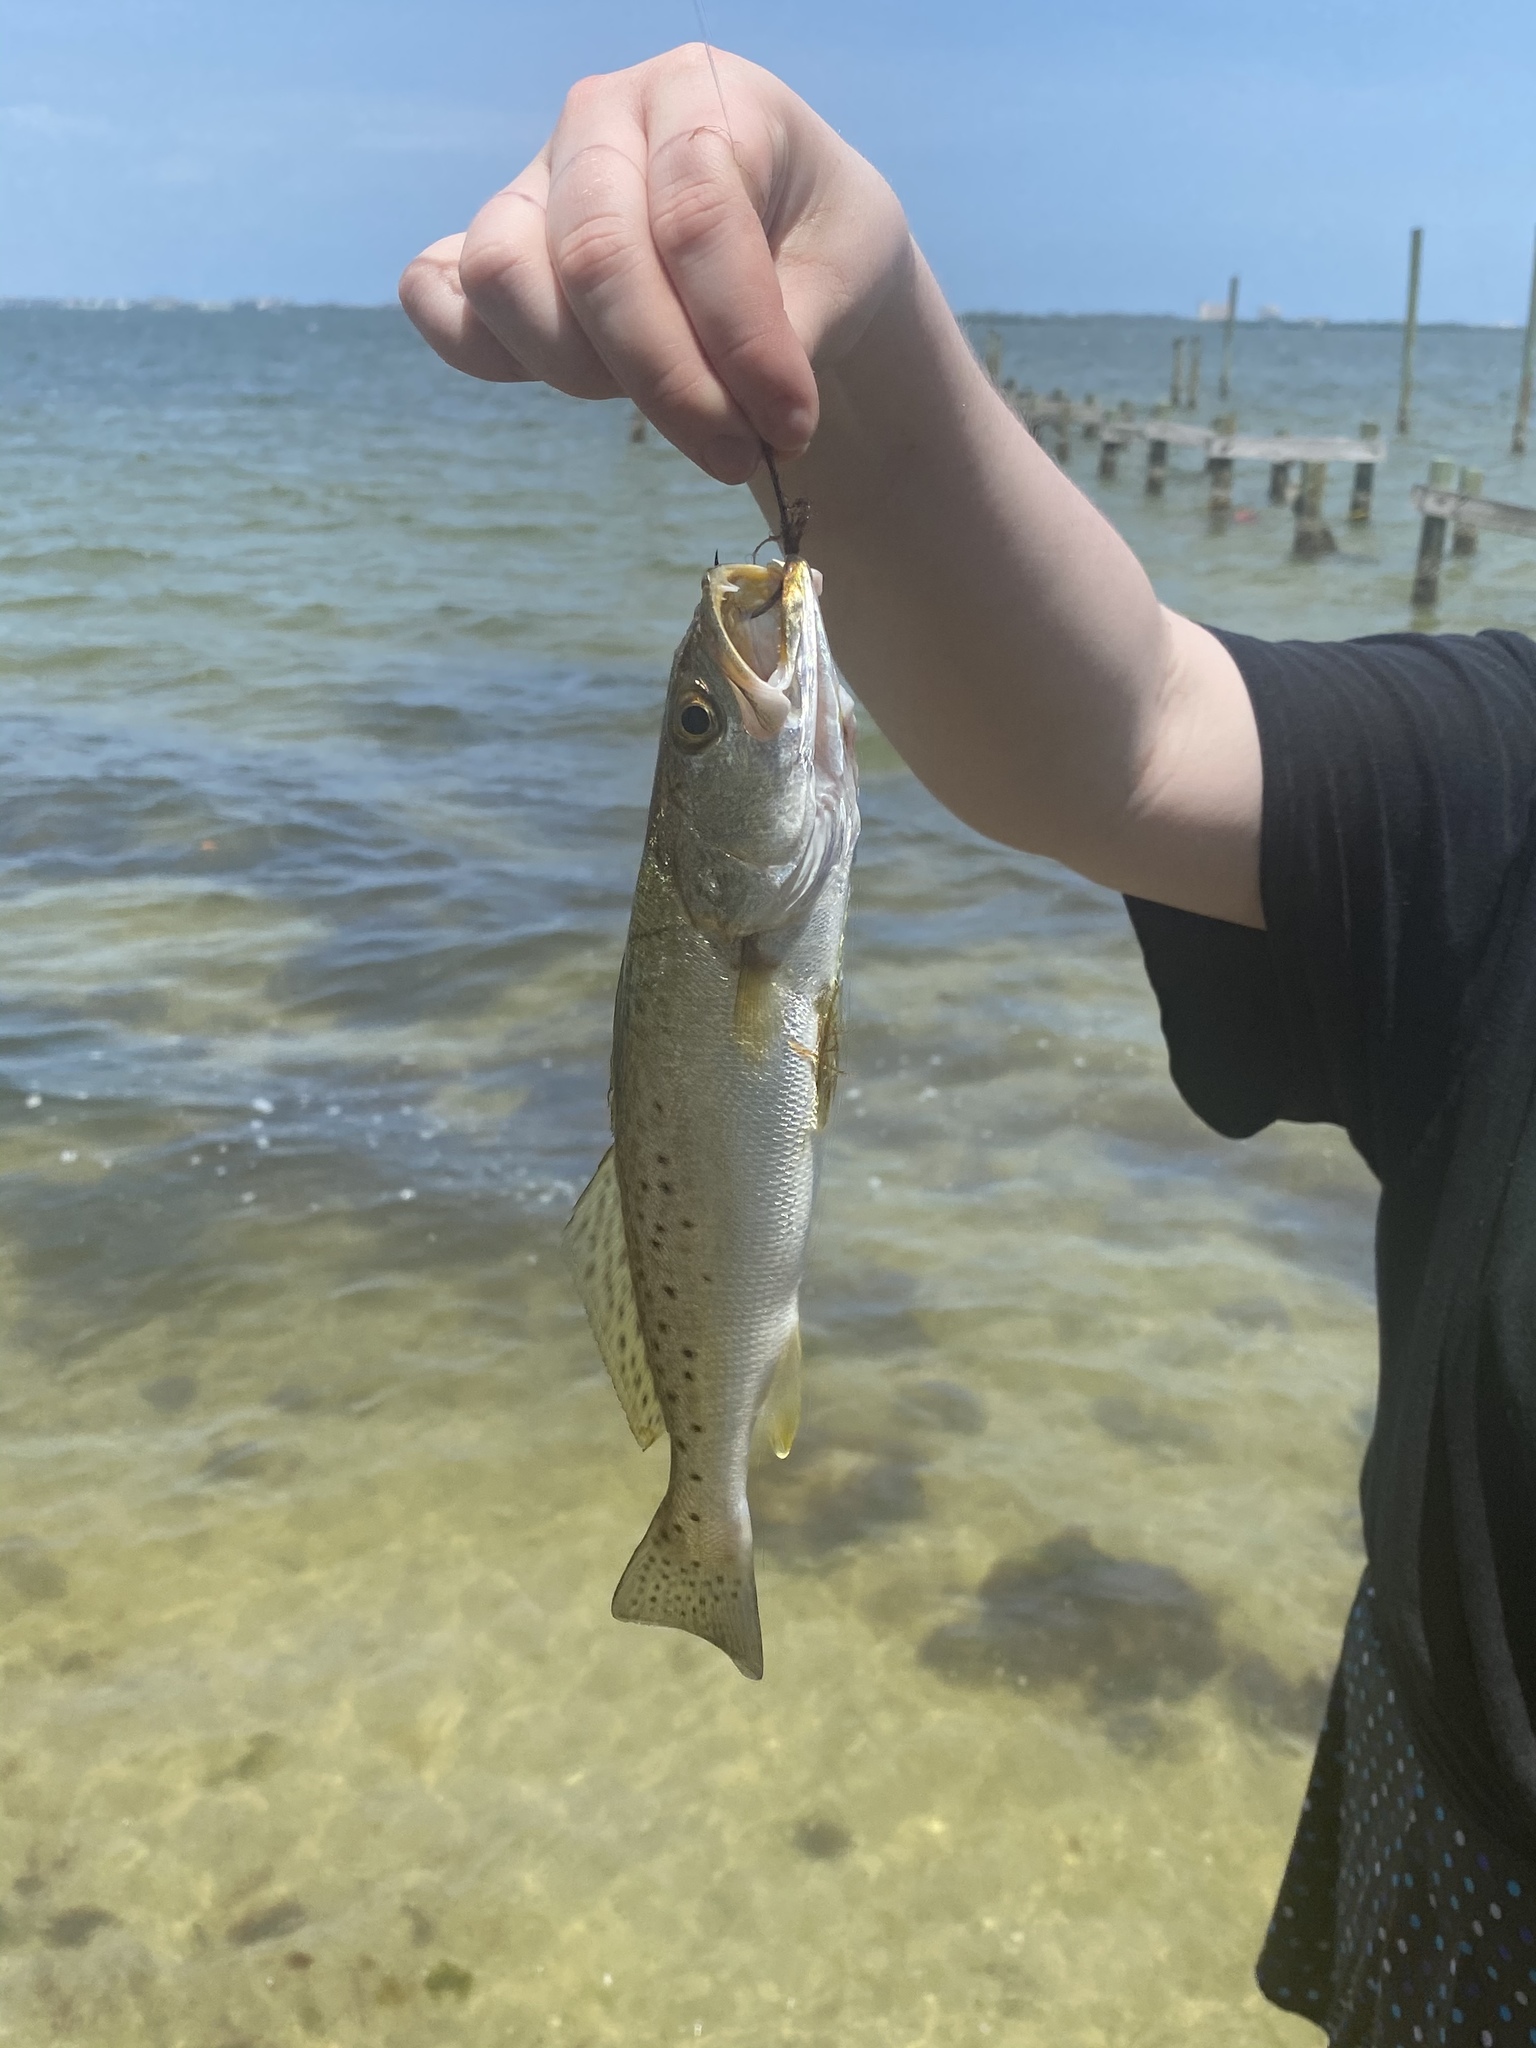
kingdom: Animalia
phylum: Chordata
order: Perciformes
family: Sciaenidae
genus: Cynoscion
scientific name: Cynoscion nebulosus
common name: Spotted seatrout
